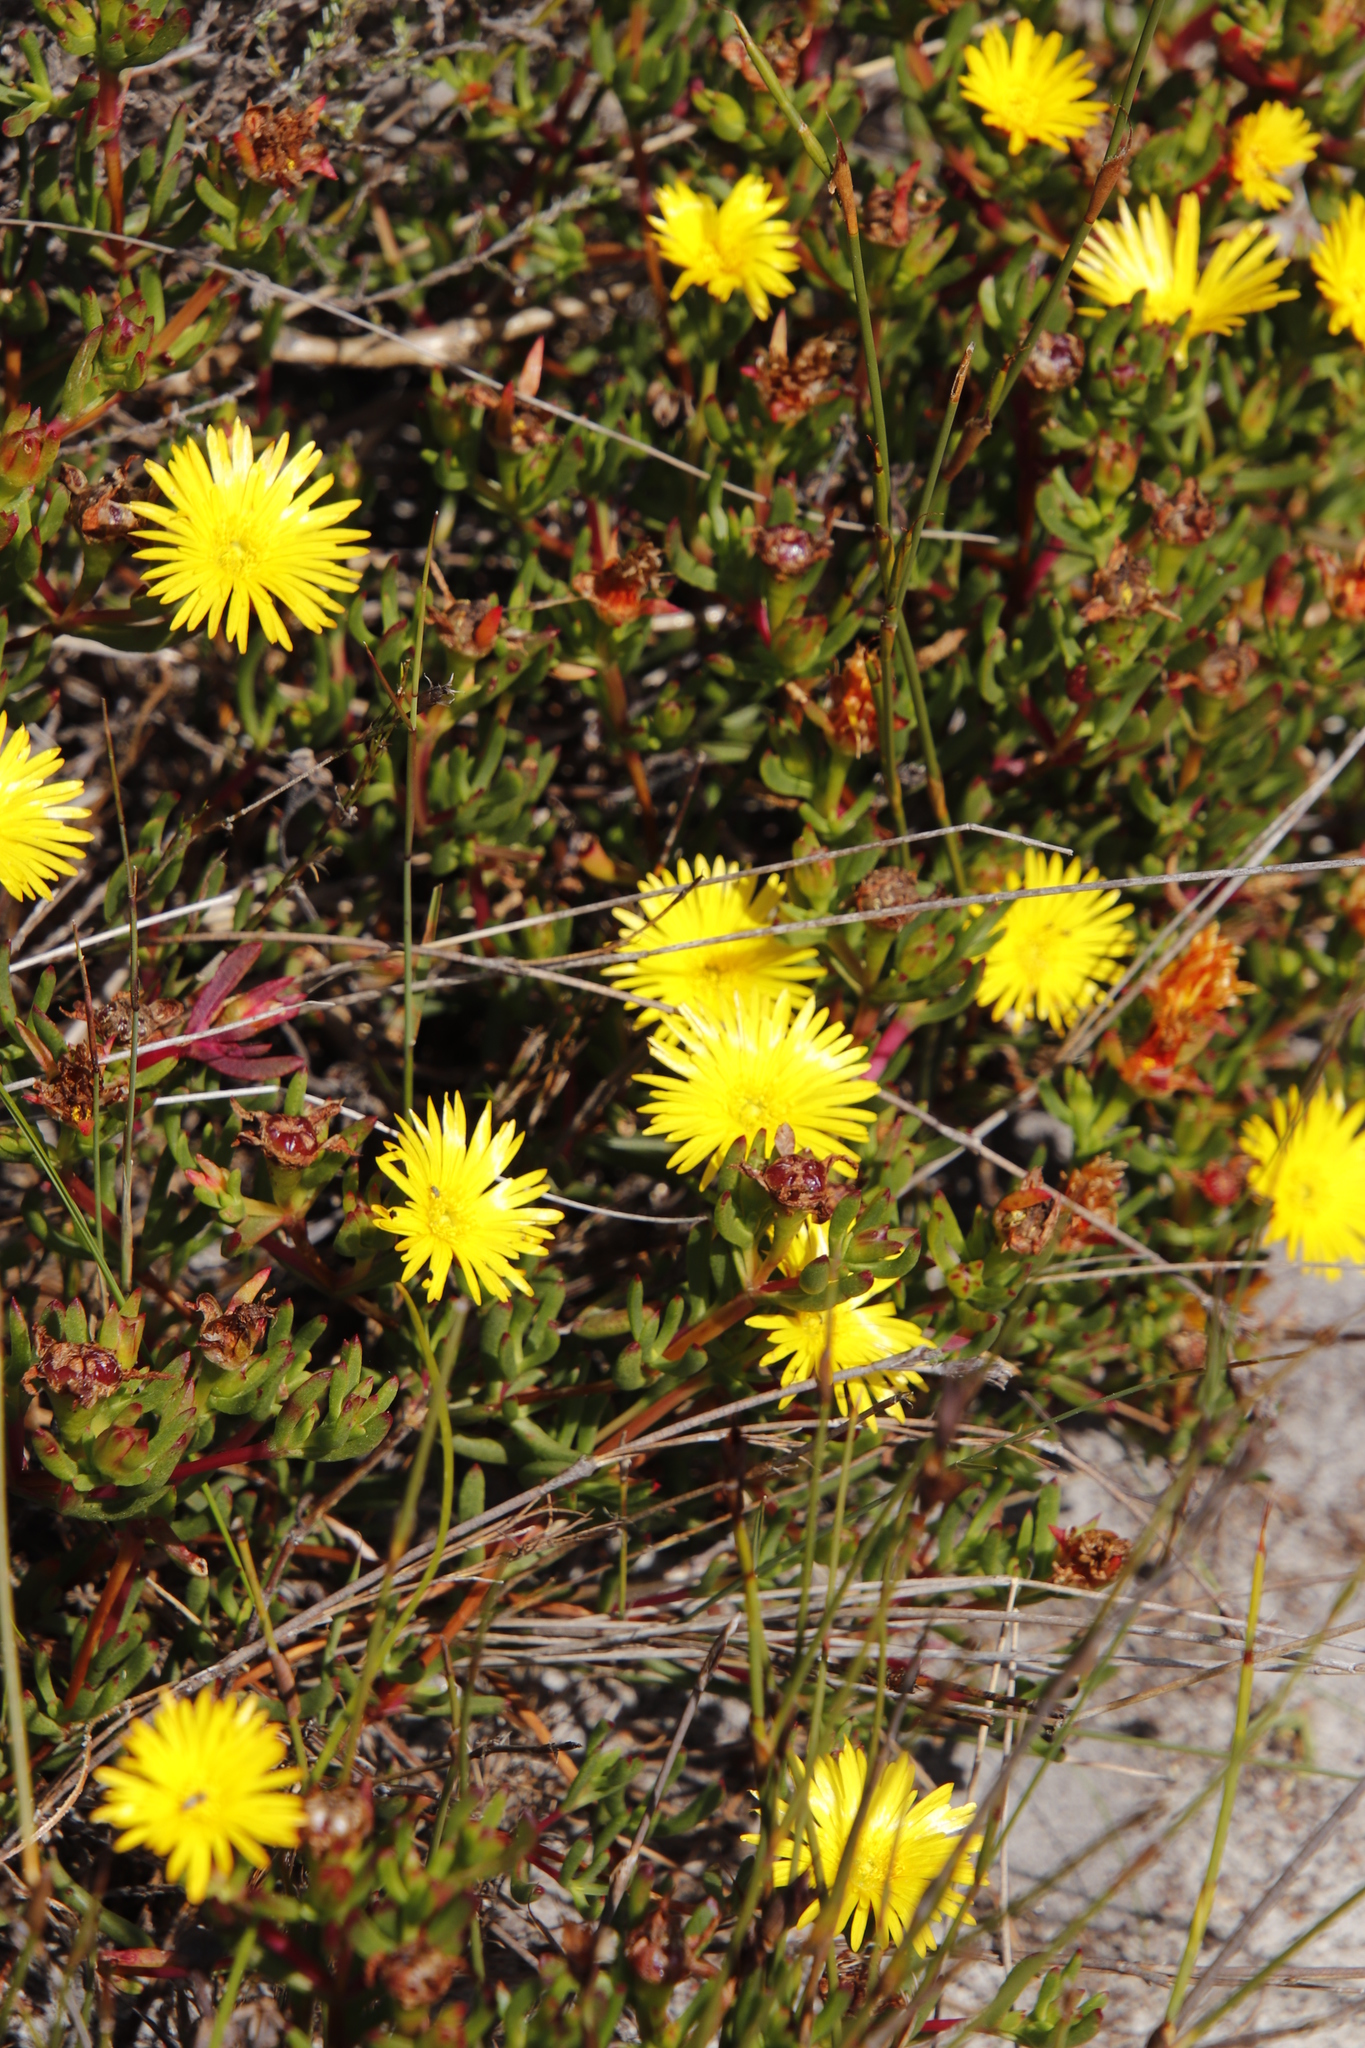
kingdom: Plantae
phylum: Tracheophyta
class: Magnoliopsida
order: Caryophyllales
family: Aizoaceae
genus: Lampranthus
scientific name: Lampranthus promontorii
